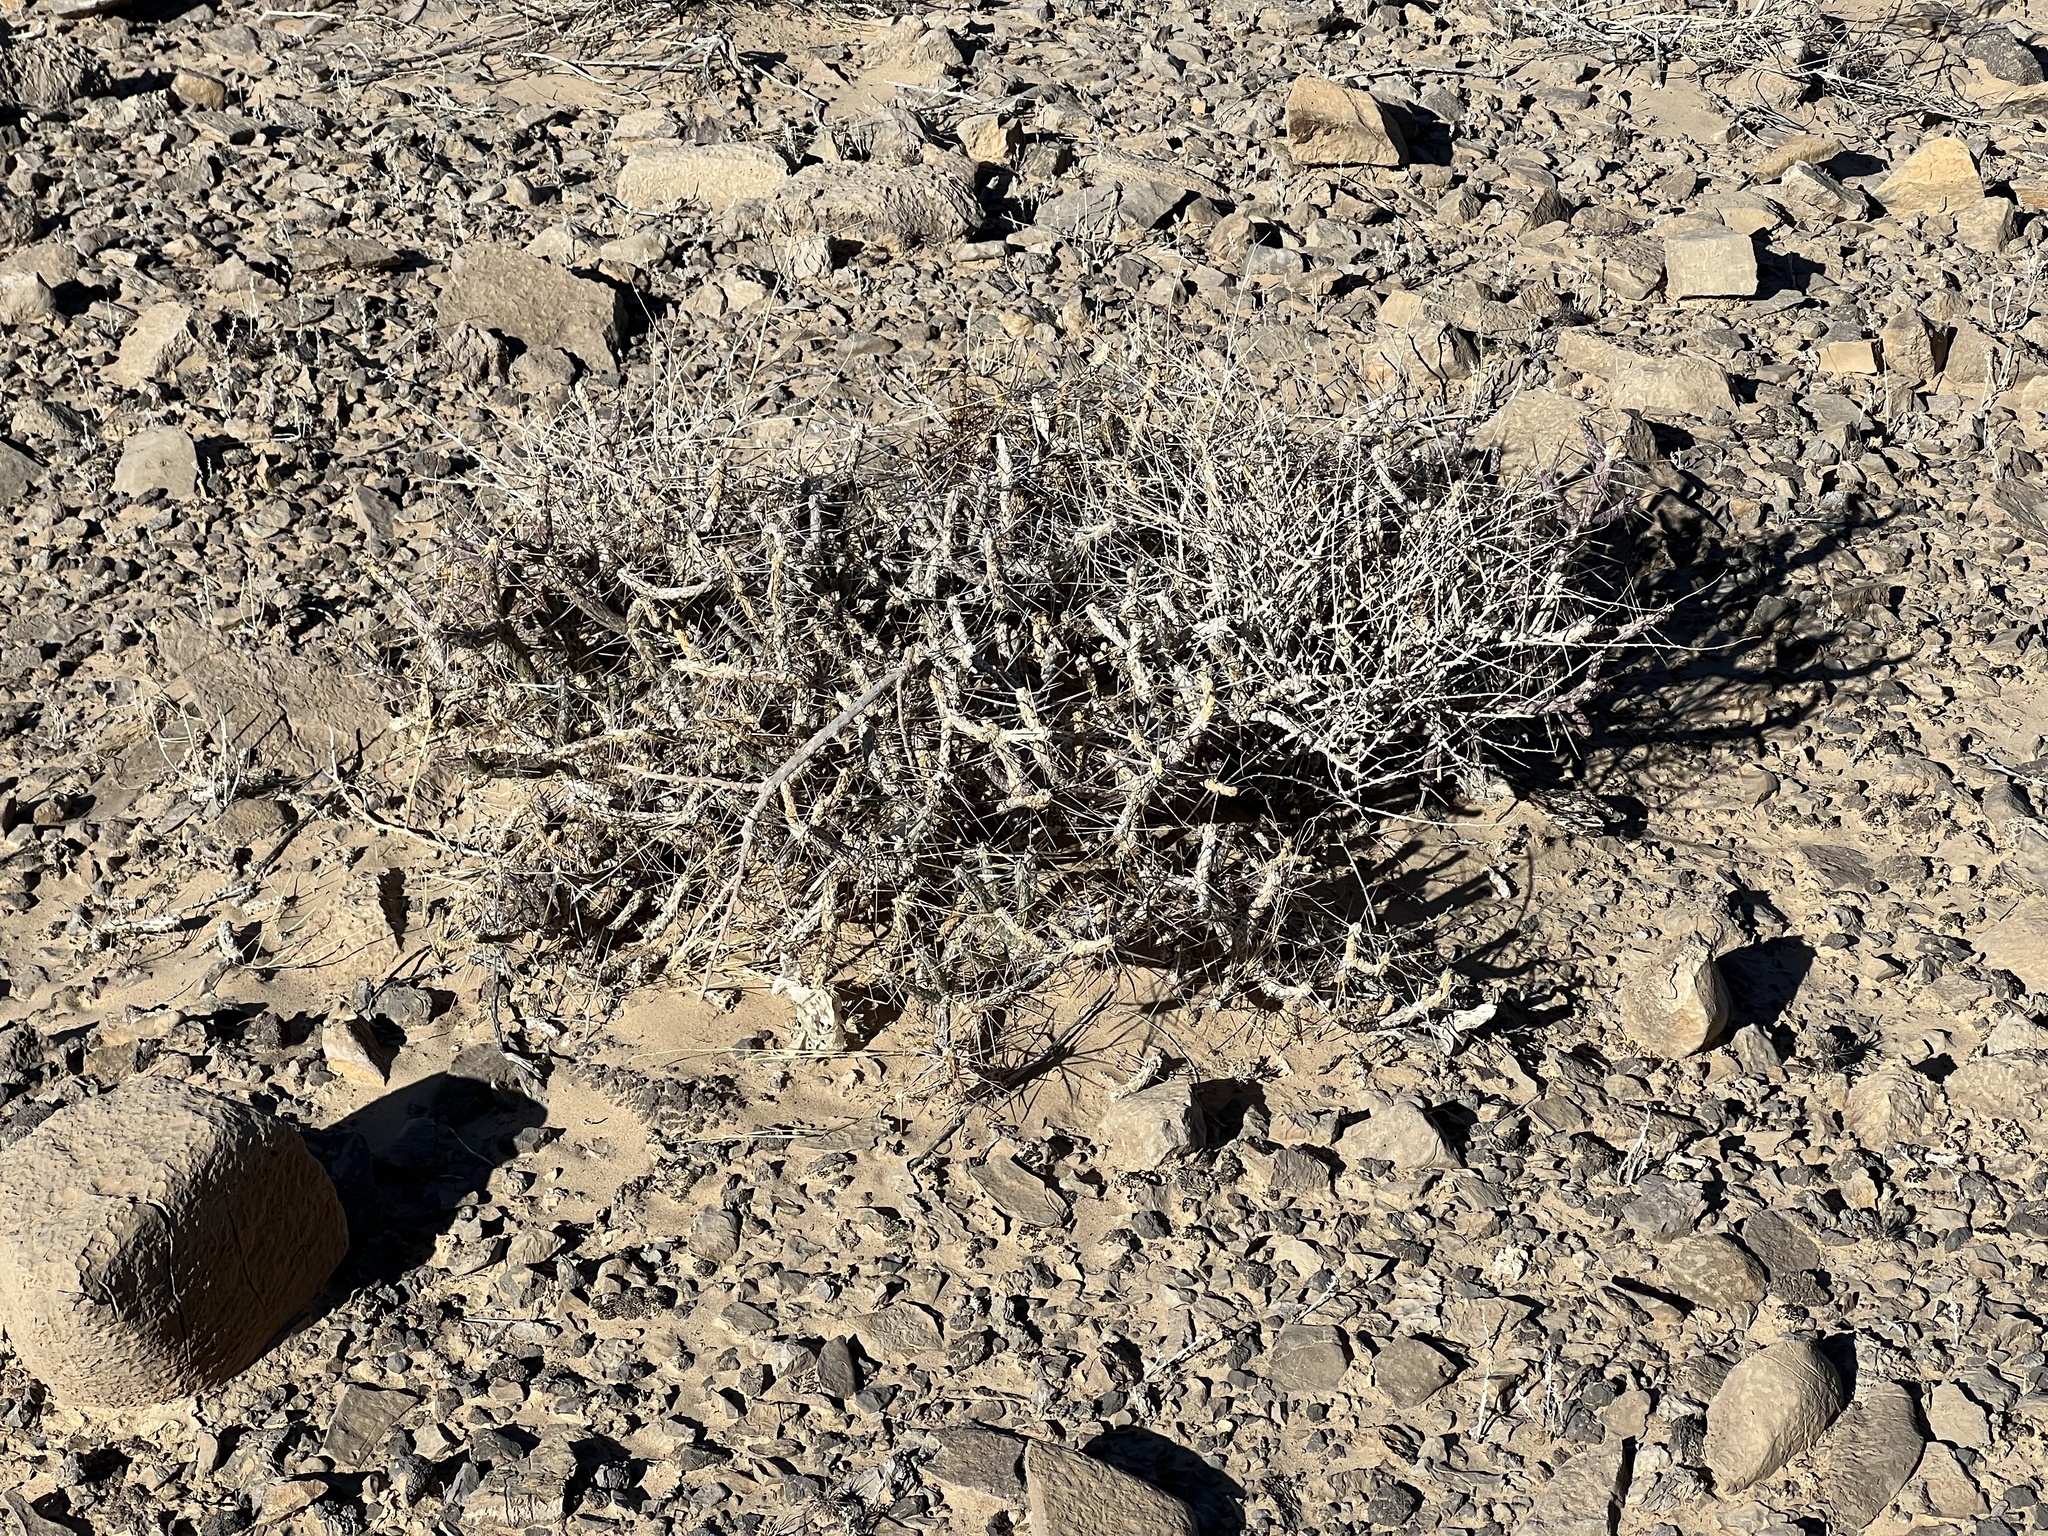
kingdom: Plantae
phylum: Tracheophyta
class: Magnoliopsida
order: Caryophyllales
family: Cactaceae
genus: Cylindropuntia
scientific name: Cylindropuntia ramosissima
